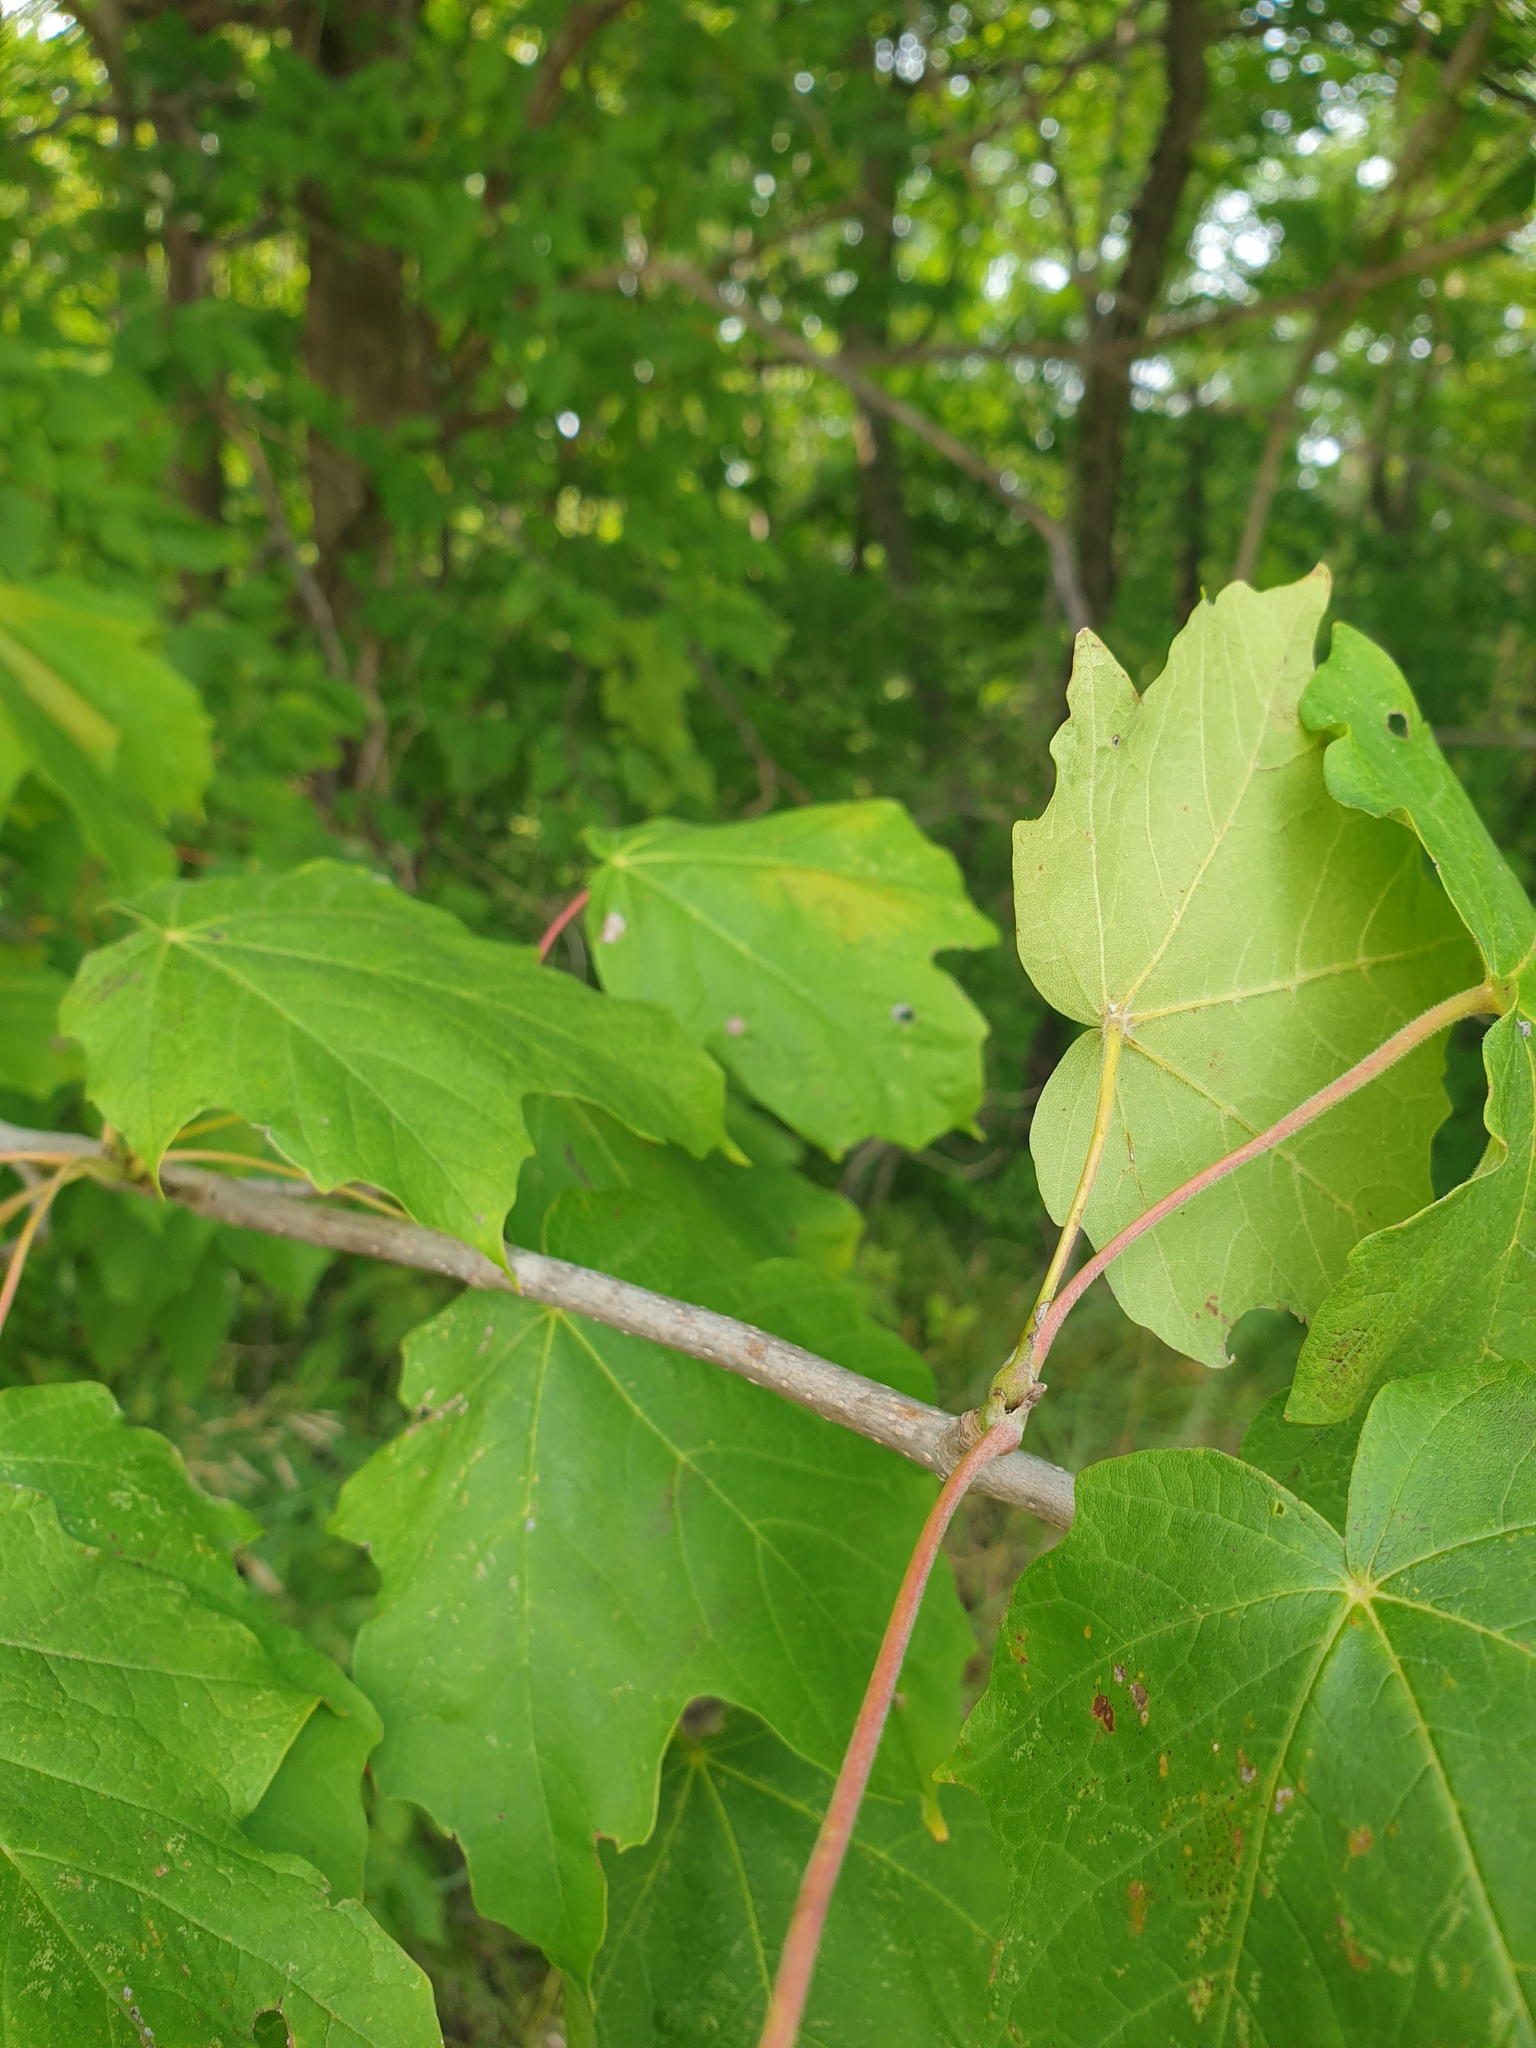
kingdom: Plantae
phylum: Tracheophyta
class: Magnoliopsida
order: Sapindales
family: Sapindaceae
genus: Acer
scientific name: Acer nigrum
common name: Black maple
